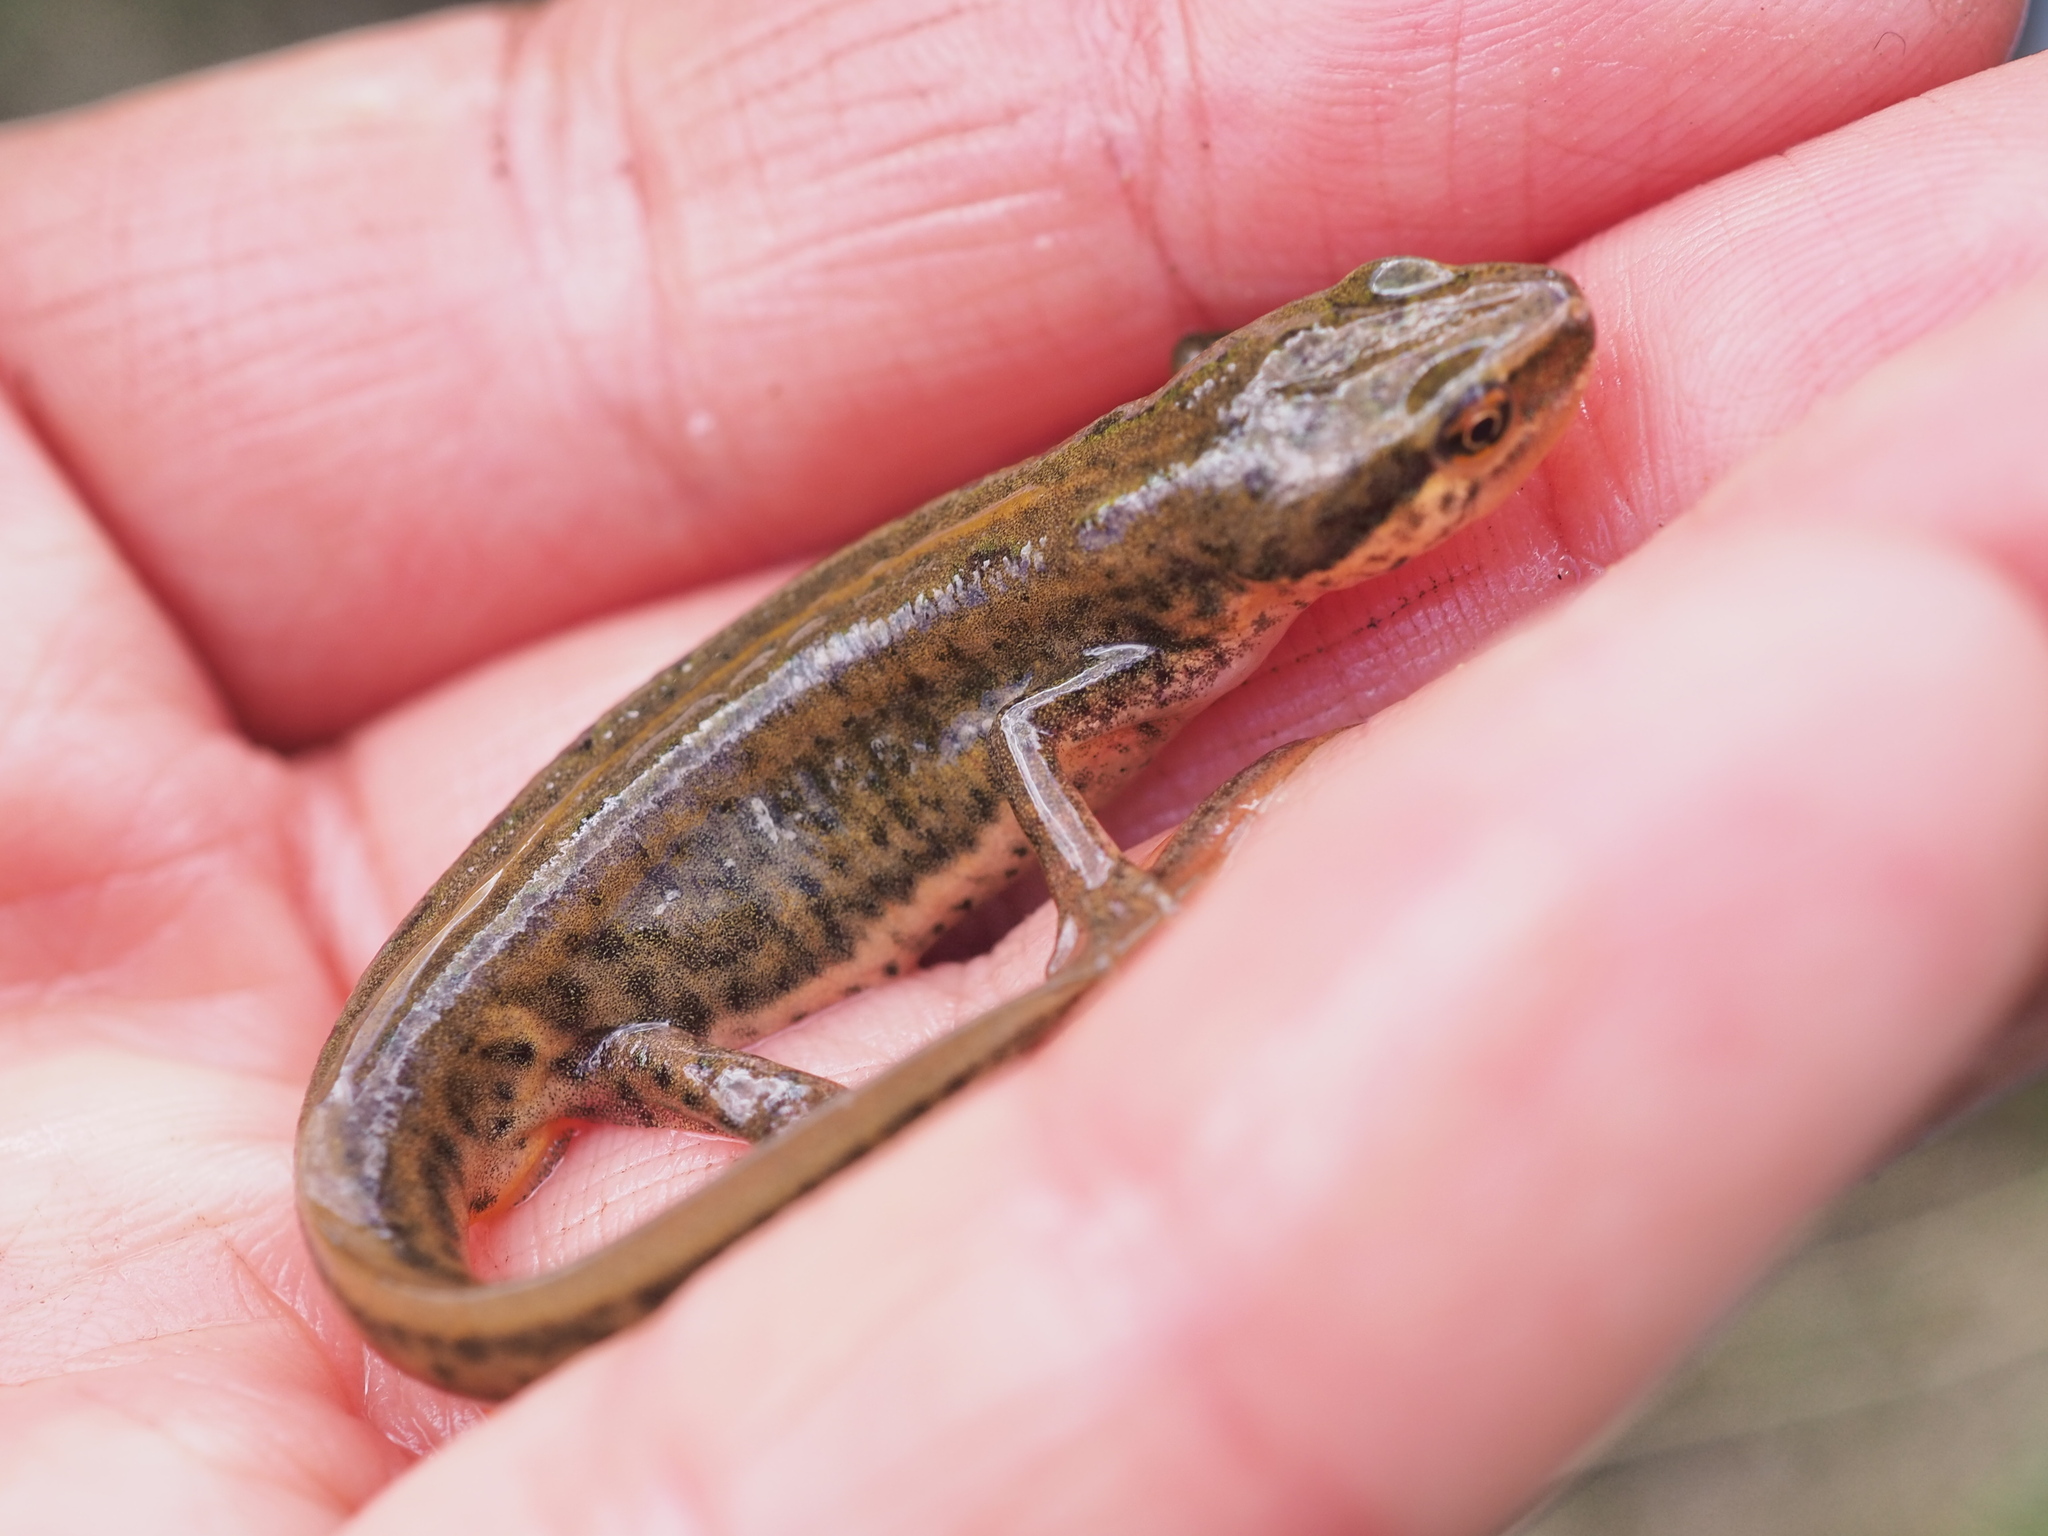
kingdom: Animalia
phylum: Chordata
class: Amphibia
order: Caudata
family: Salamandridae
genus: Lissotriton
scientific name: Lissotriton helveticus
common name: Palmate newt
